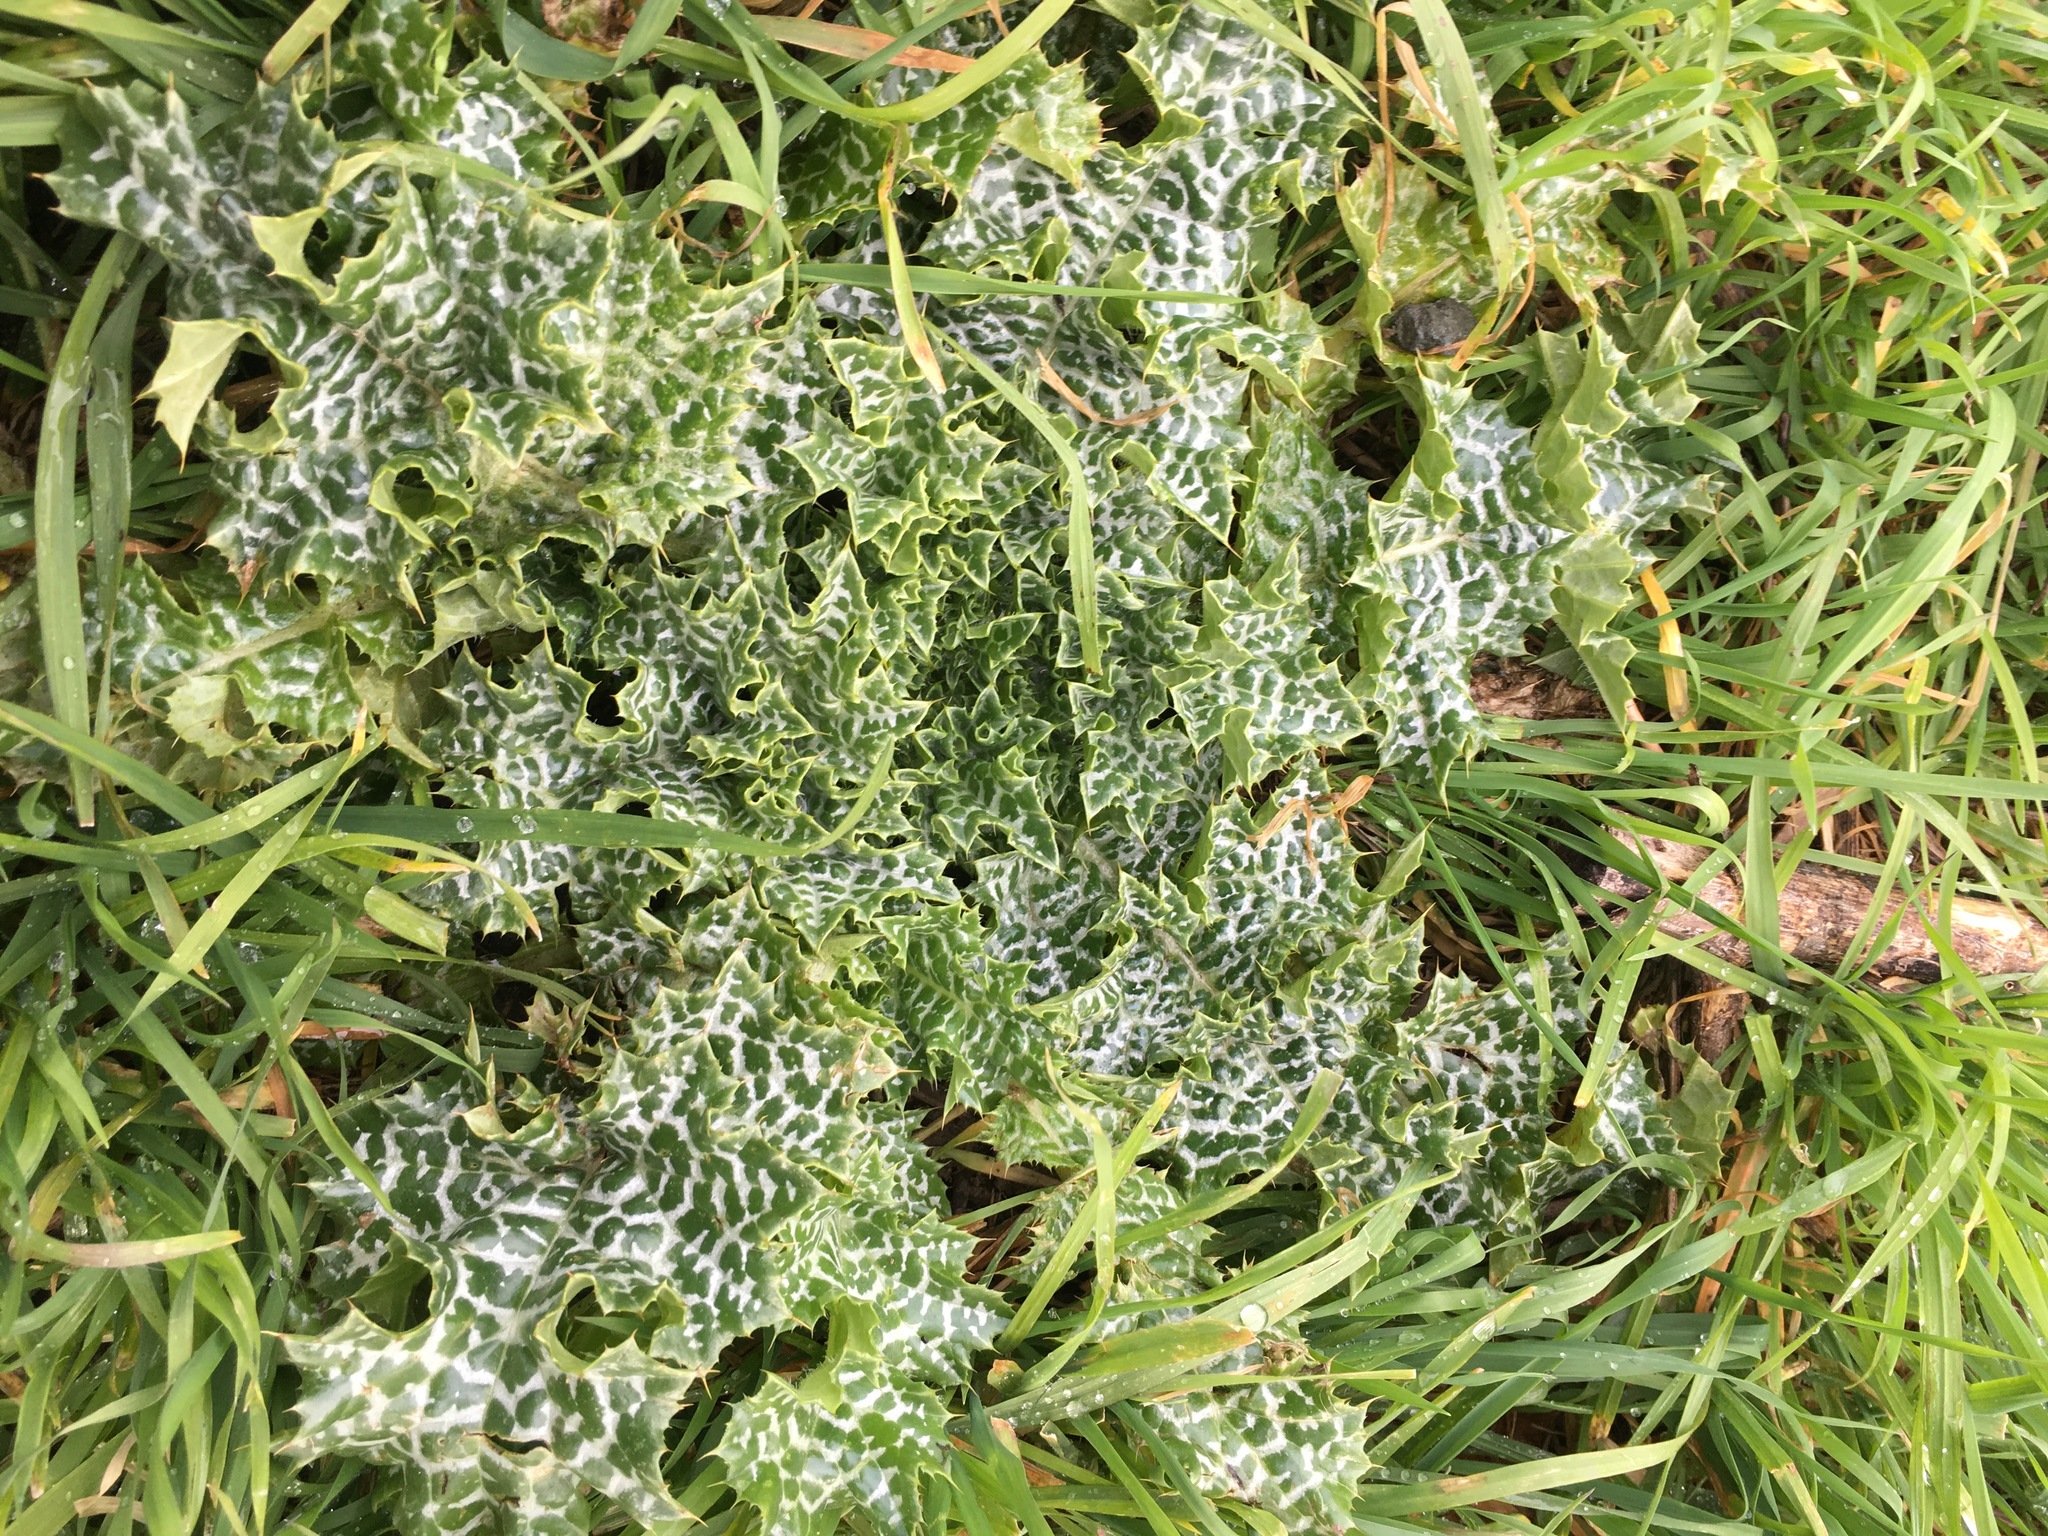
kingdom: Plantae
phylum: Tracheophyta
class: Magnoliopsida
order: Asterales
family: Asteraceae
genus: Silybum
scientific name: Silybum marianum
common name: Milk thistle
